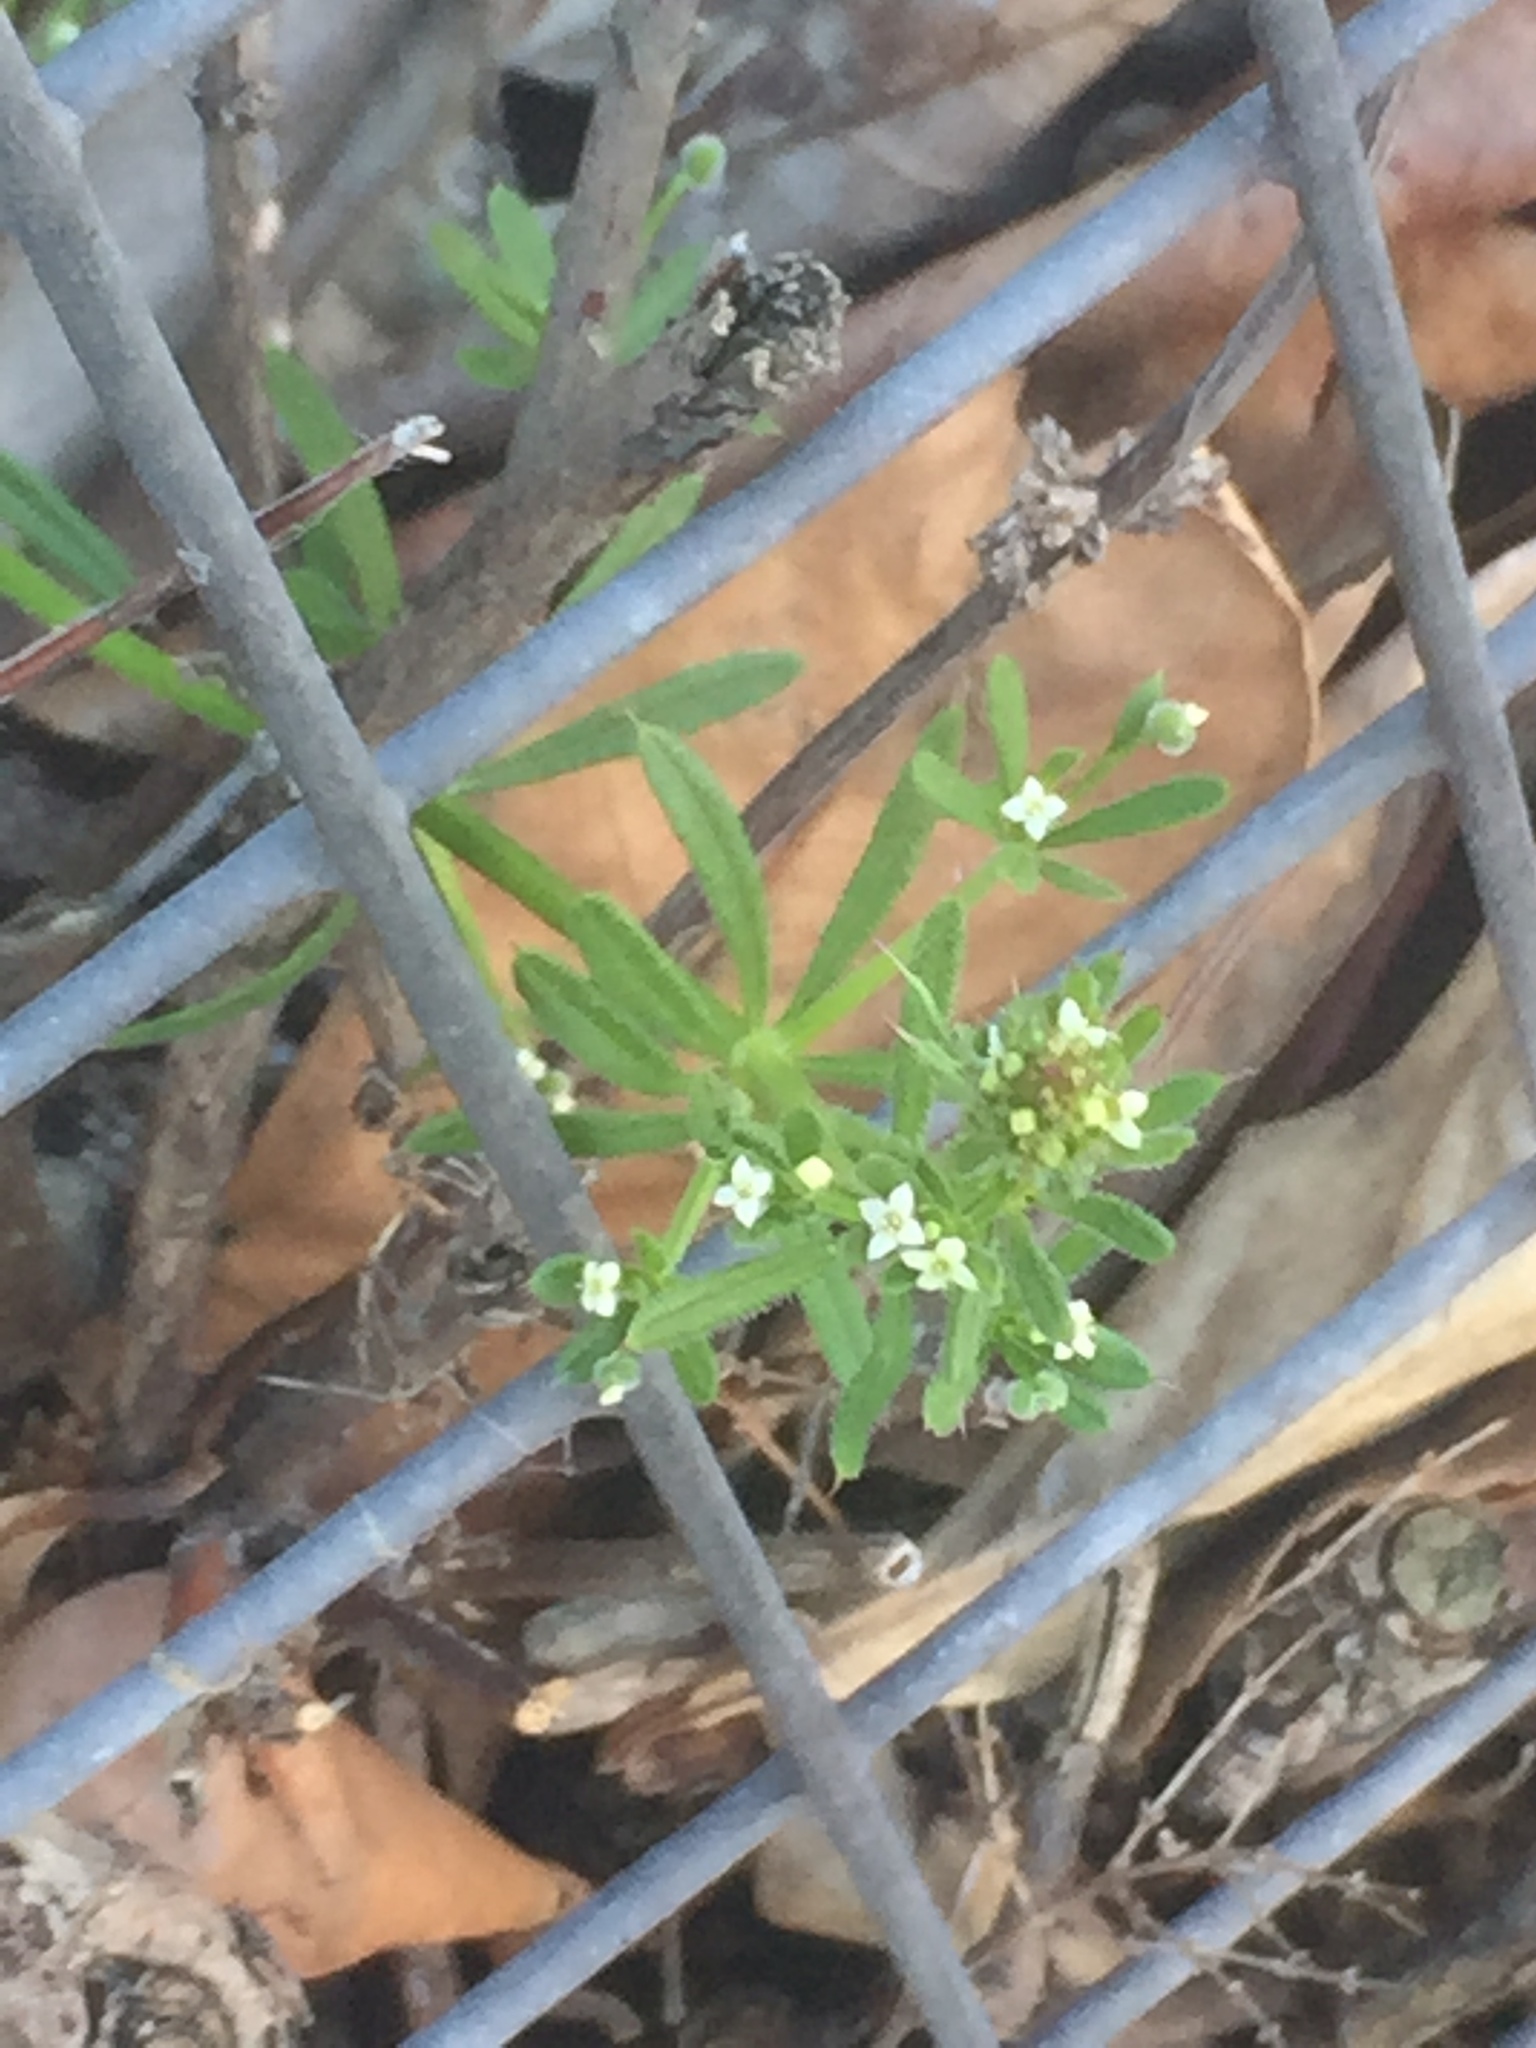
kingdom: Plantae
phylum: Tracheophyta
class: Magnoliopsida
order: Gentianales
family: Rubiaceae
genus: Galium
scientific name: Galium aparine
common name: Cleavers
